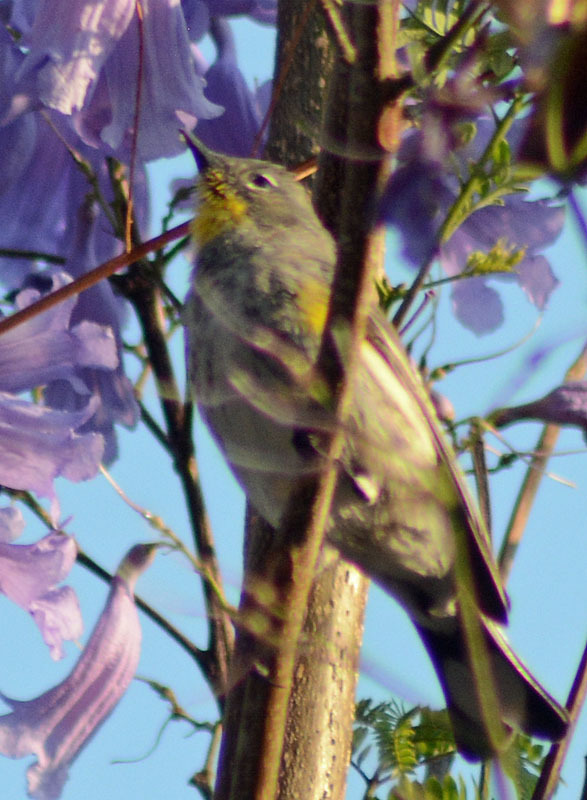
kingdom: Animalia
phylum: Chordata
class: Aves
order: Passeriformes
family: Parulidae
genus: Setophaga
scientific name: Setophaga coronata
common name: Myrtle warbler
